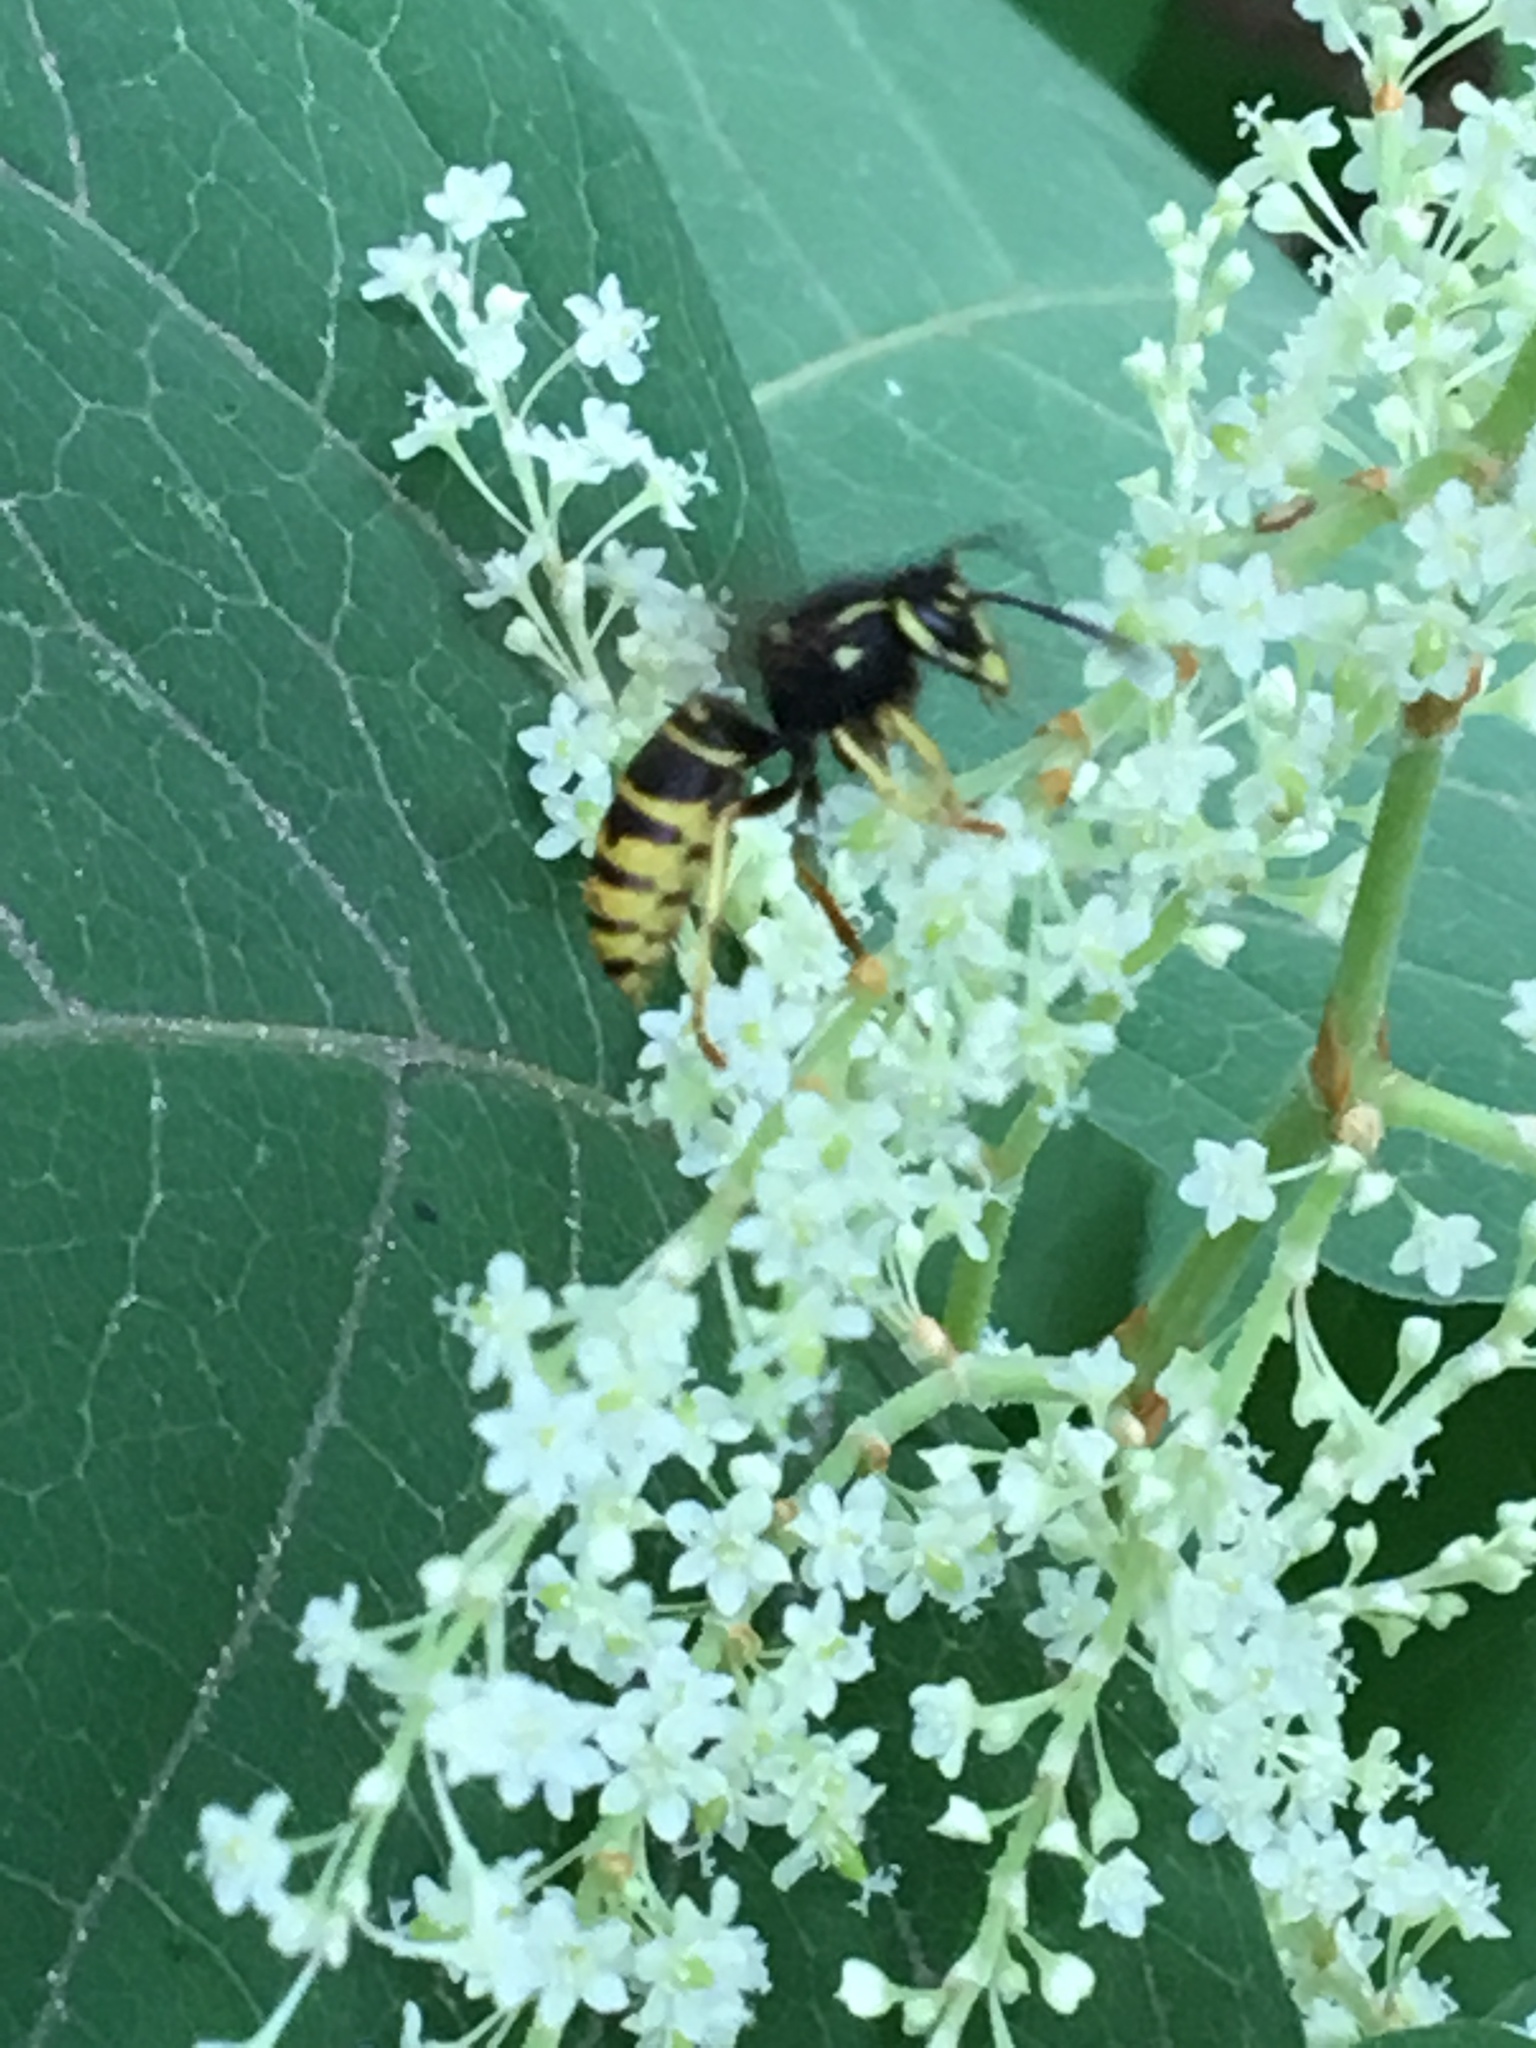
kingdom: Animalia
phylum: Arthropoda
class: Insecta
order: Hymenoptera
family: Vespidae
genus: Vespula
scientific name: Vespula vidua
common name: Widow yellowjacket
